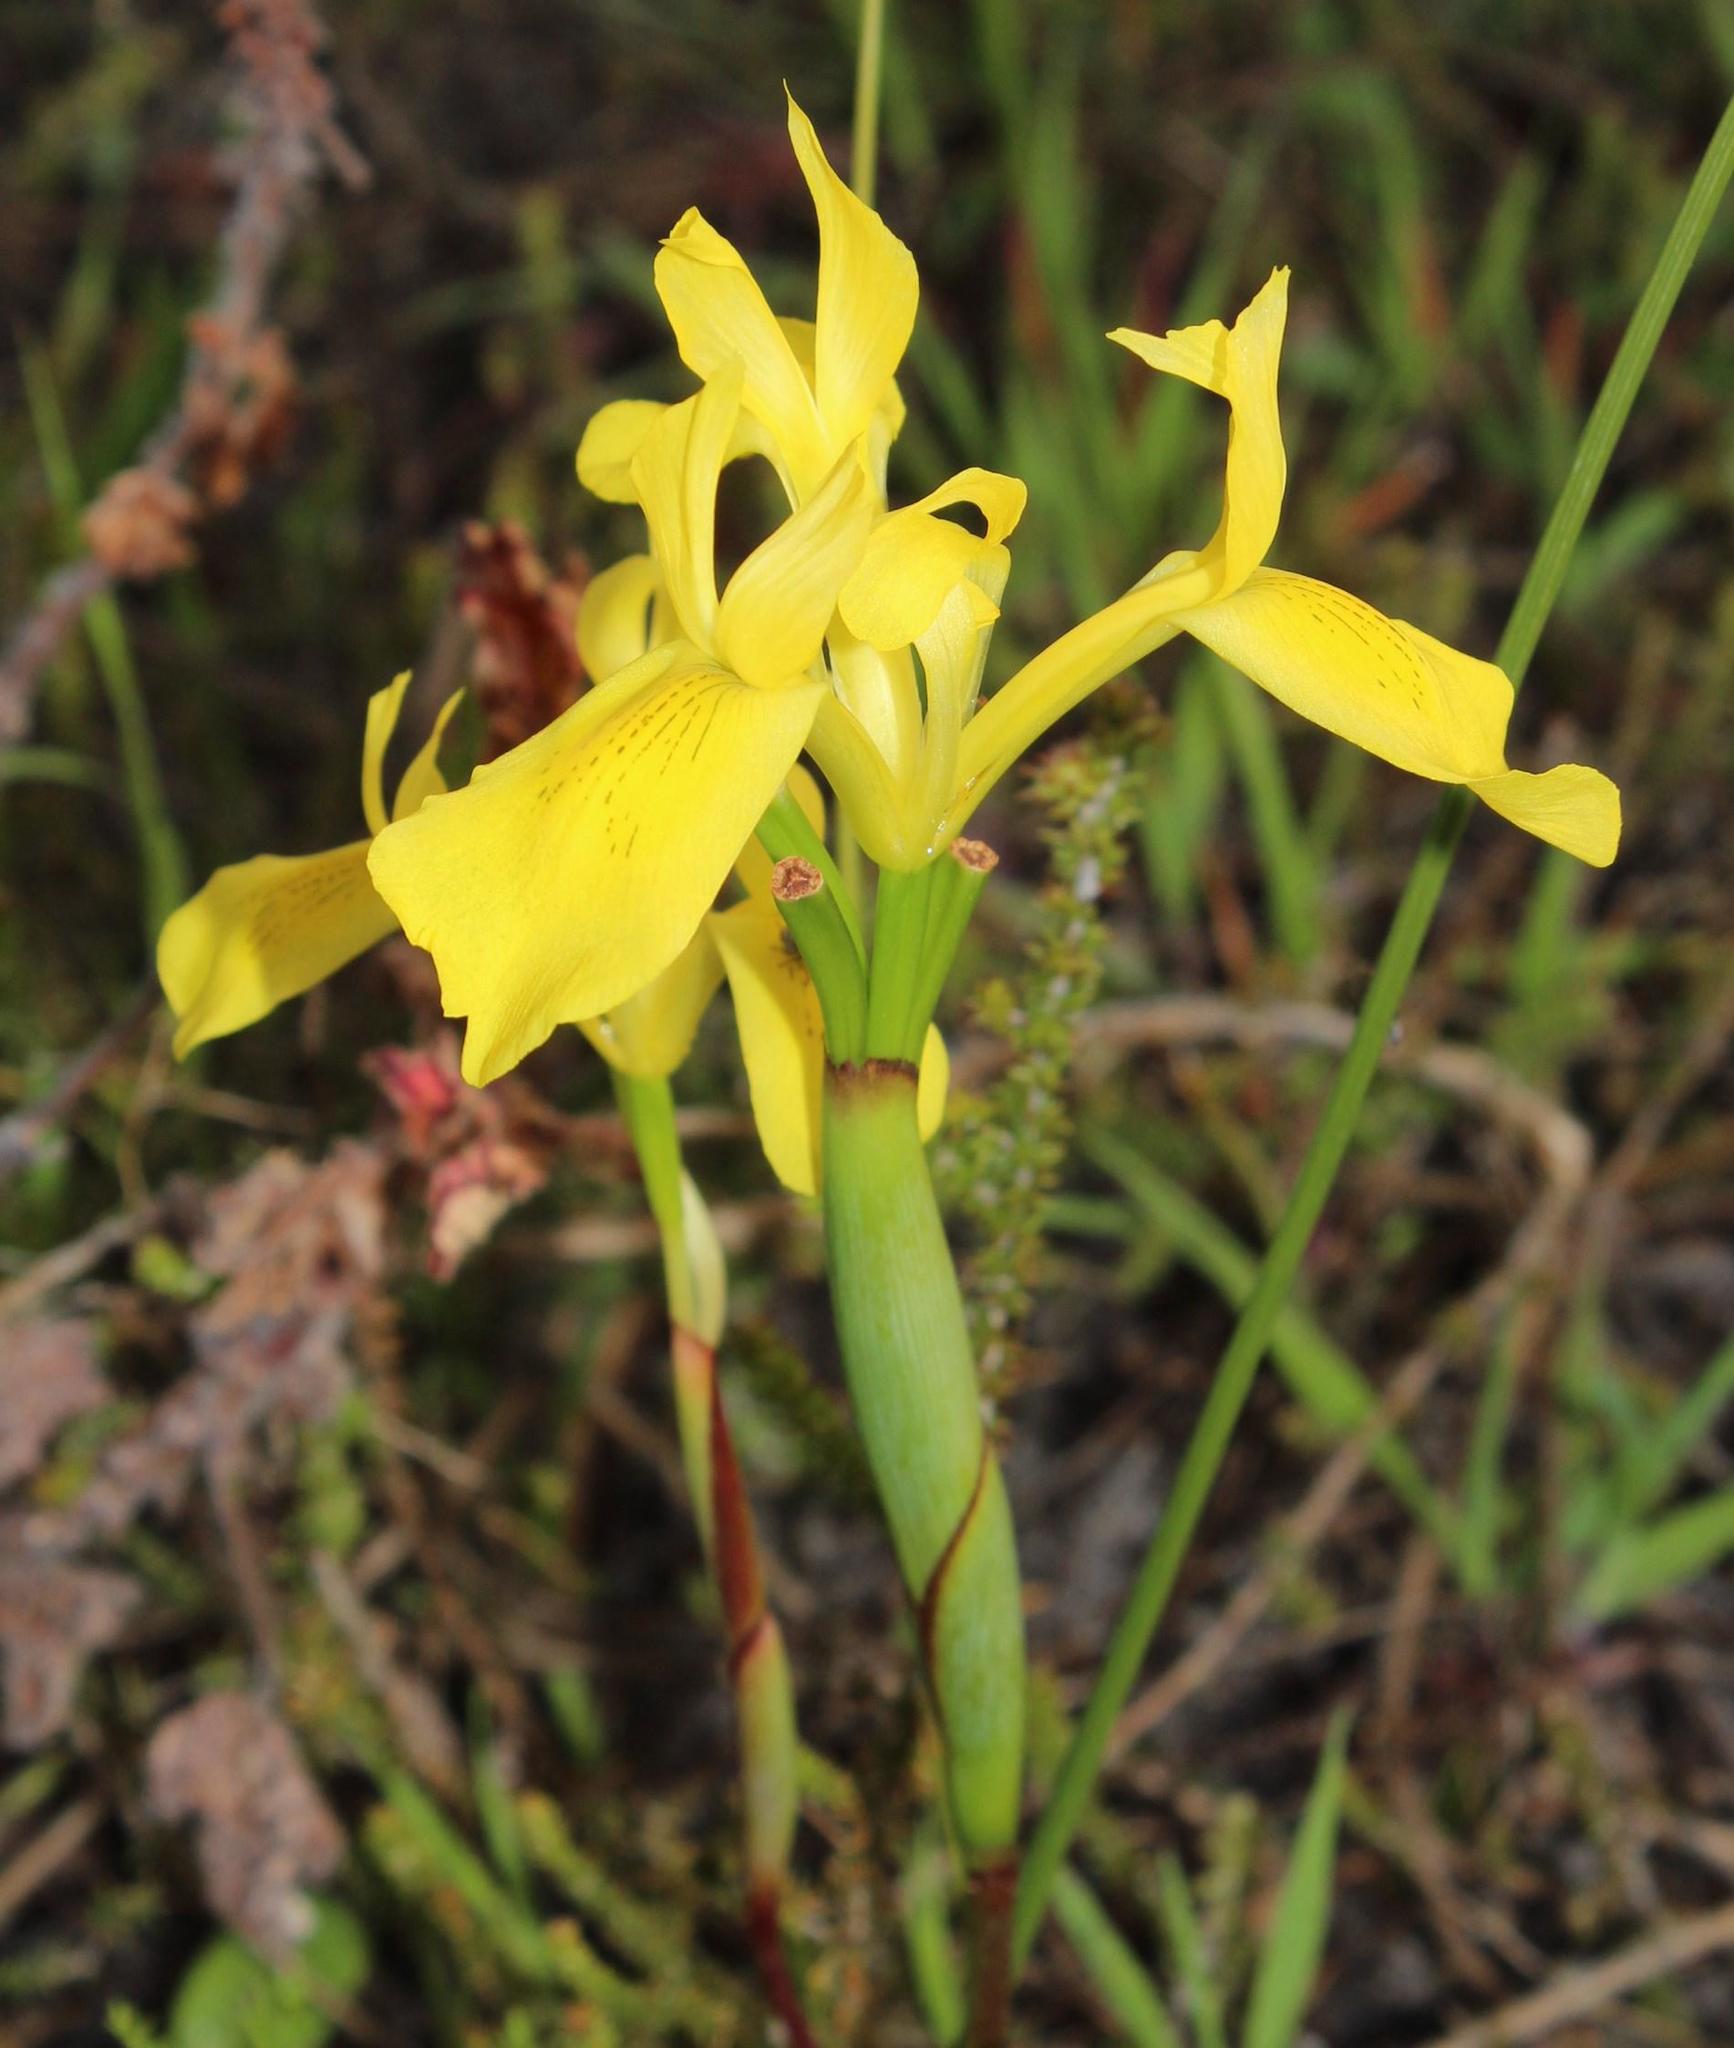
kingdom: Plantae
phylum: Tracheophyta
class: Liliopsida
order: Asparagales
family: Iridaceae
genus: Moraea
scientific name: Moraea neglecta
